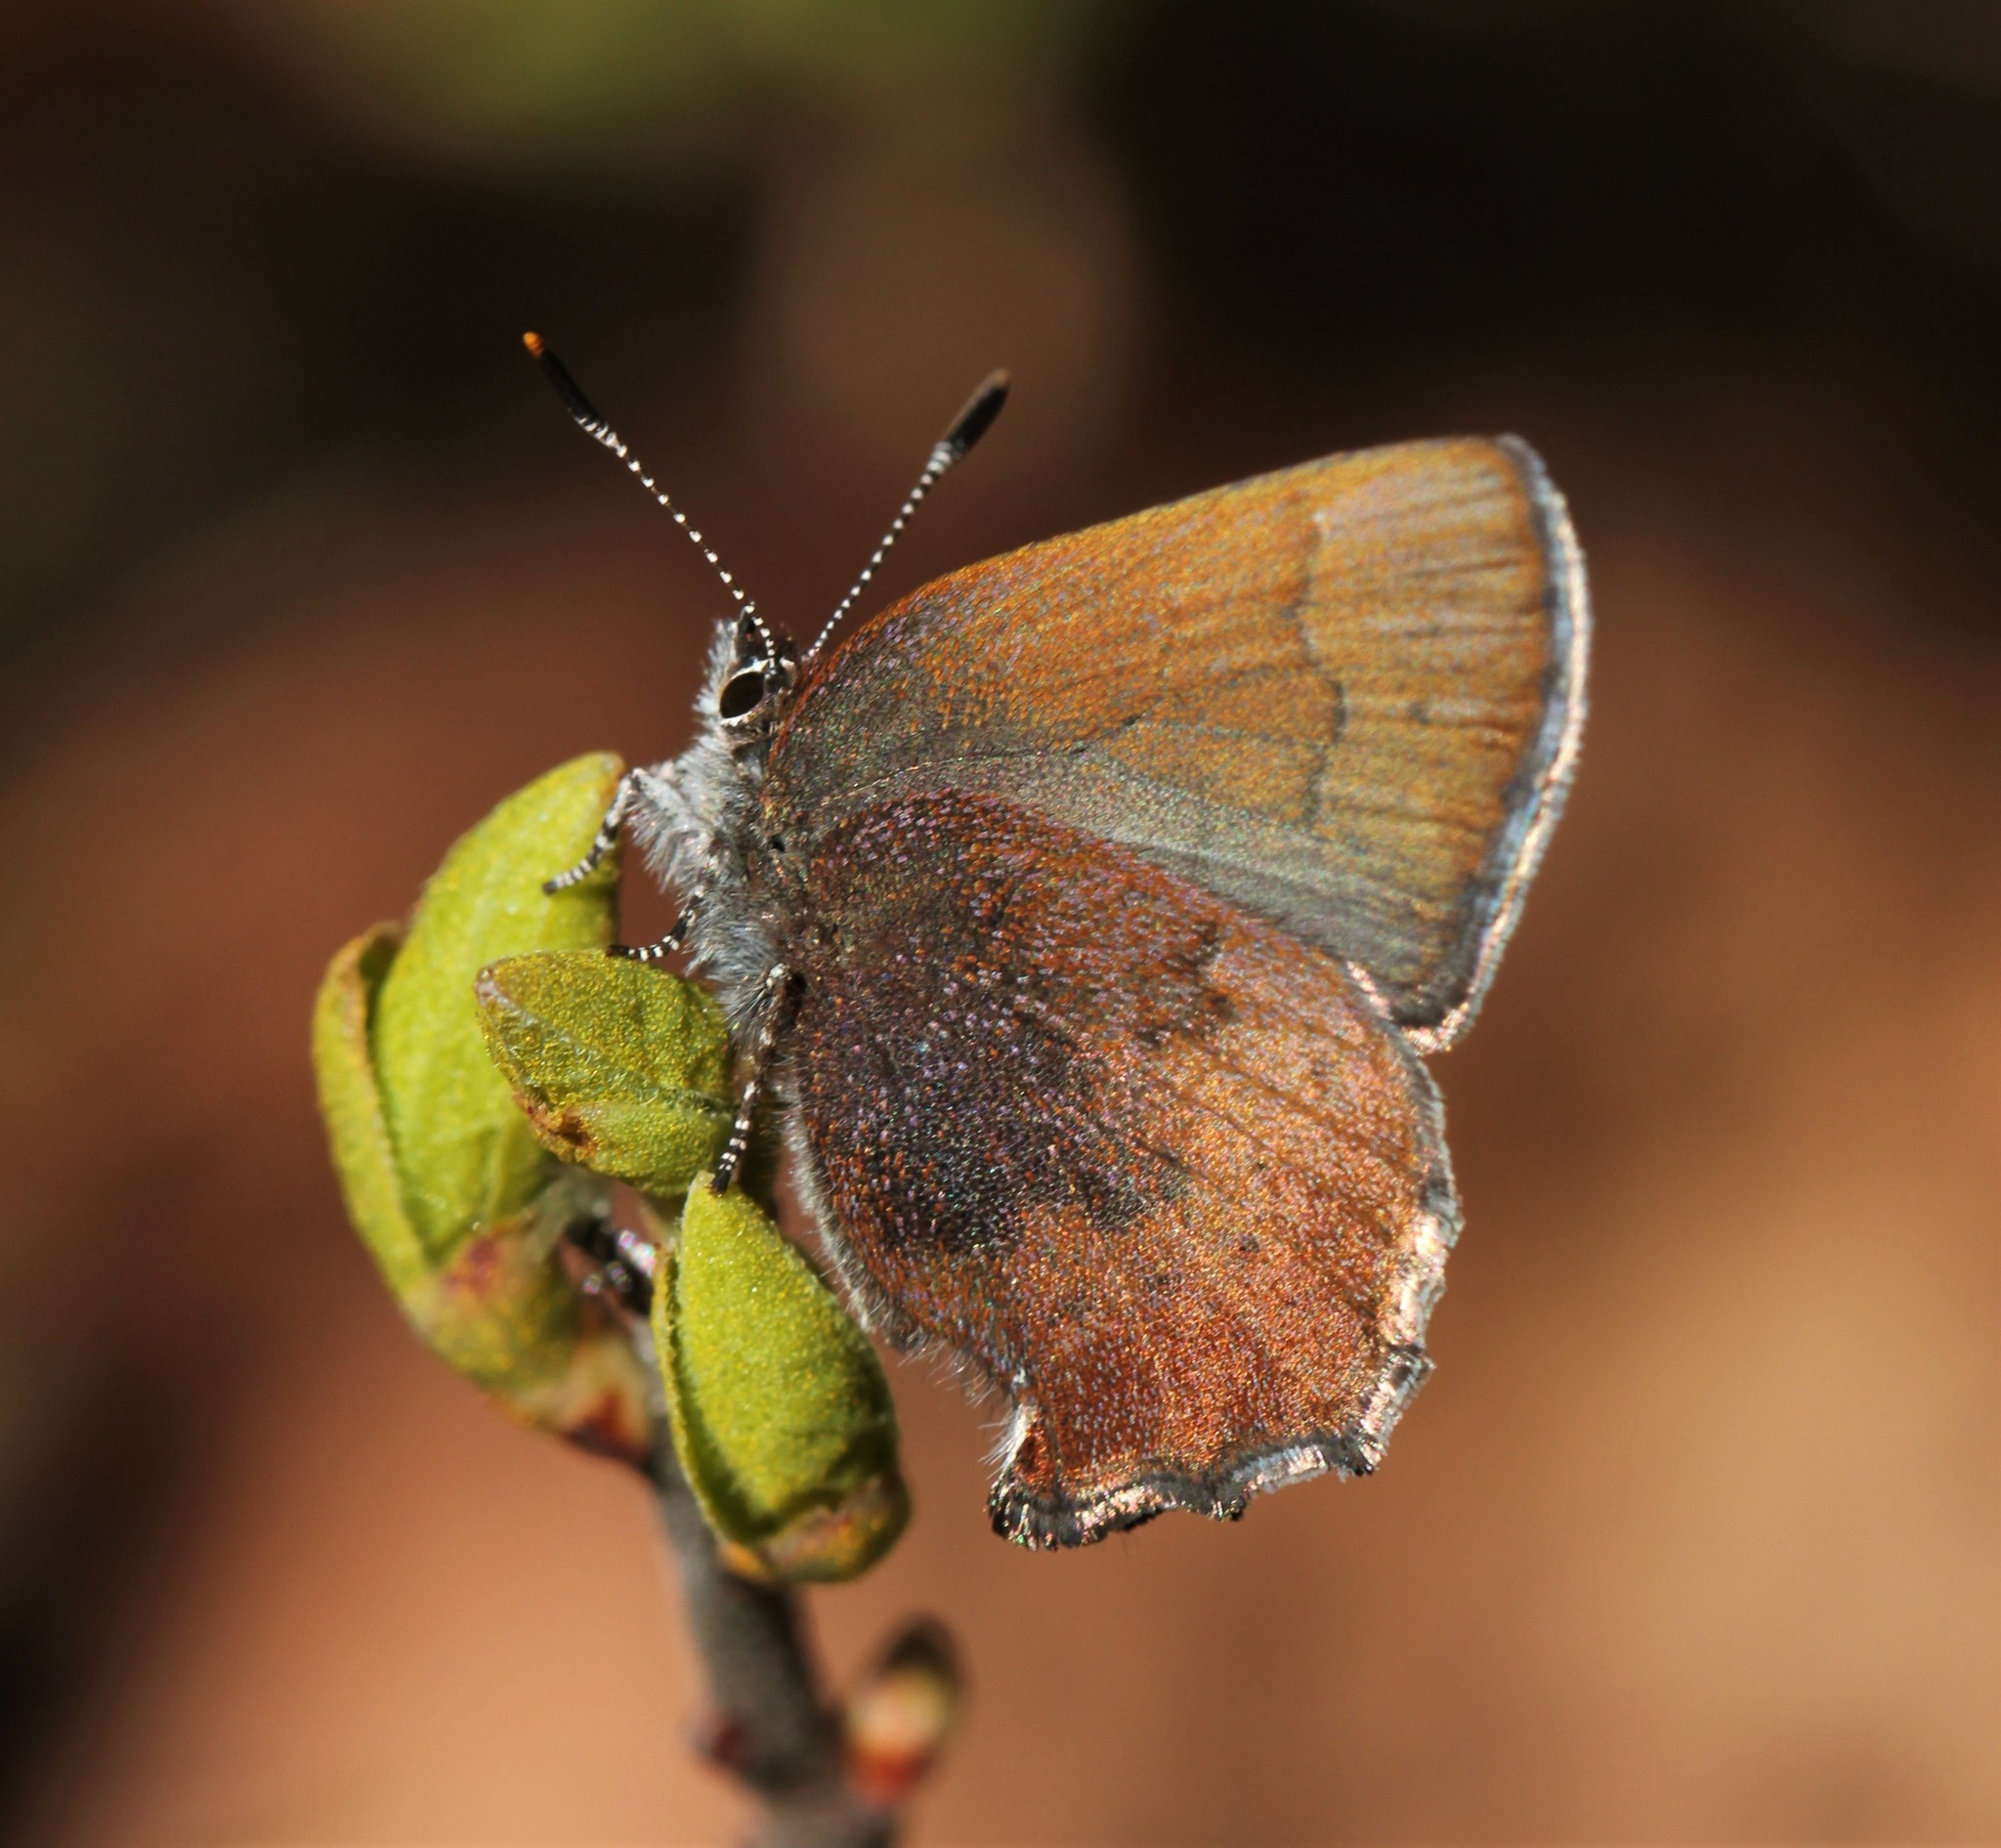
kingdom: Animalia
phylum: Arthropoda
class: Insecta
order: Lepidoptera
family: Lycaenidae
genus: Incisalia
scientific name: Incisalia irioides
